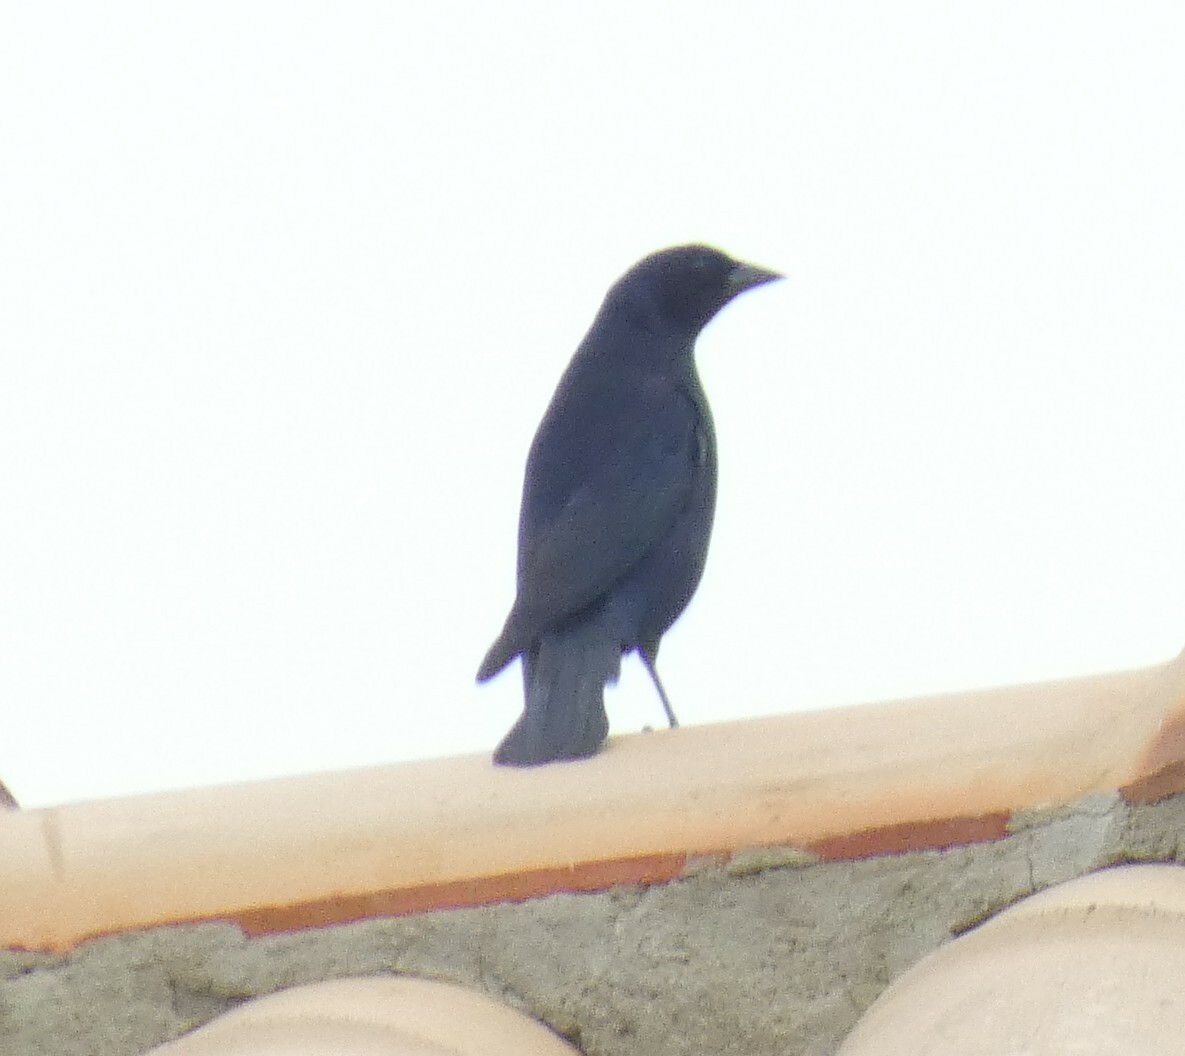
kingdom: Animalia
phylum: Chordata
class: Aves
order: Passeriformes
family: Icteridae
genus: Molothrus
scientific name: Molothrus bonariensis
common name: Shiny cowbird
